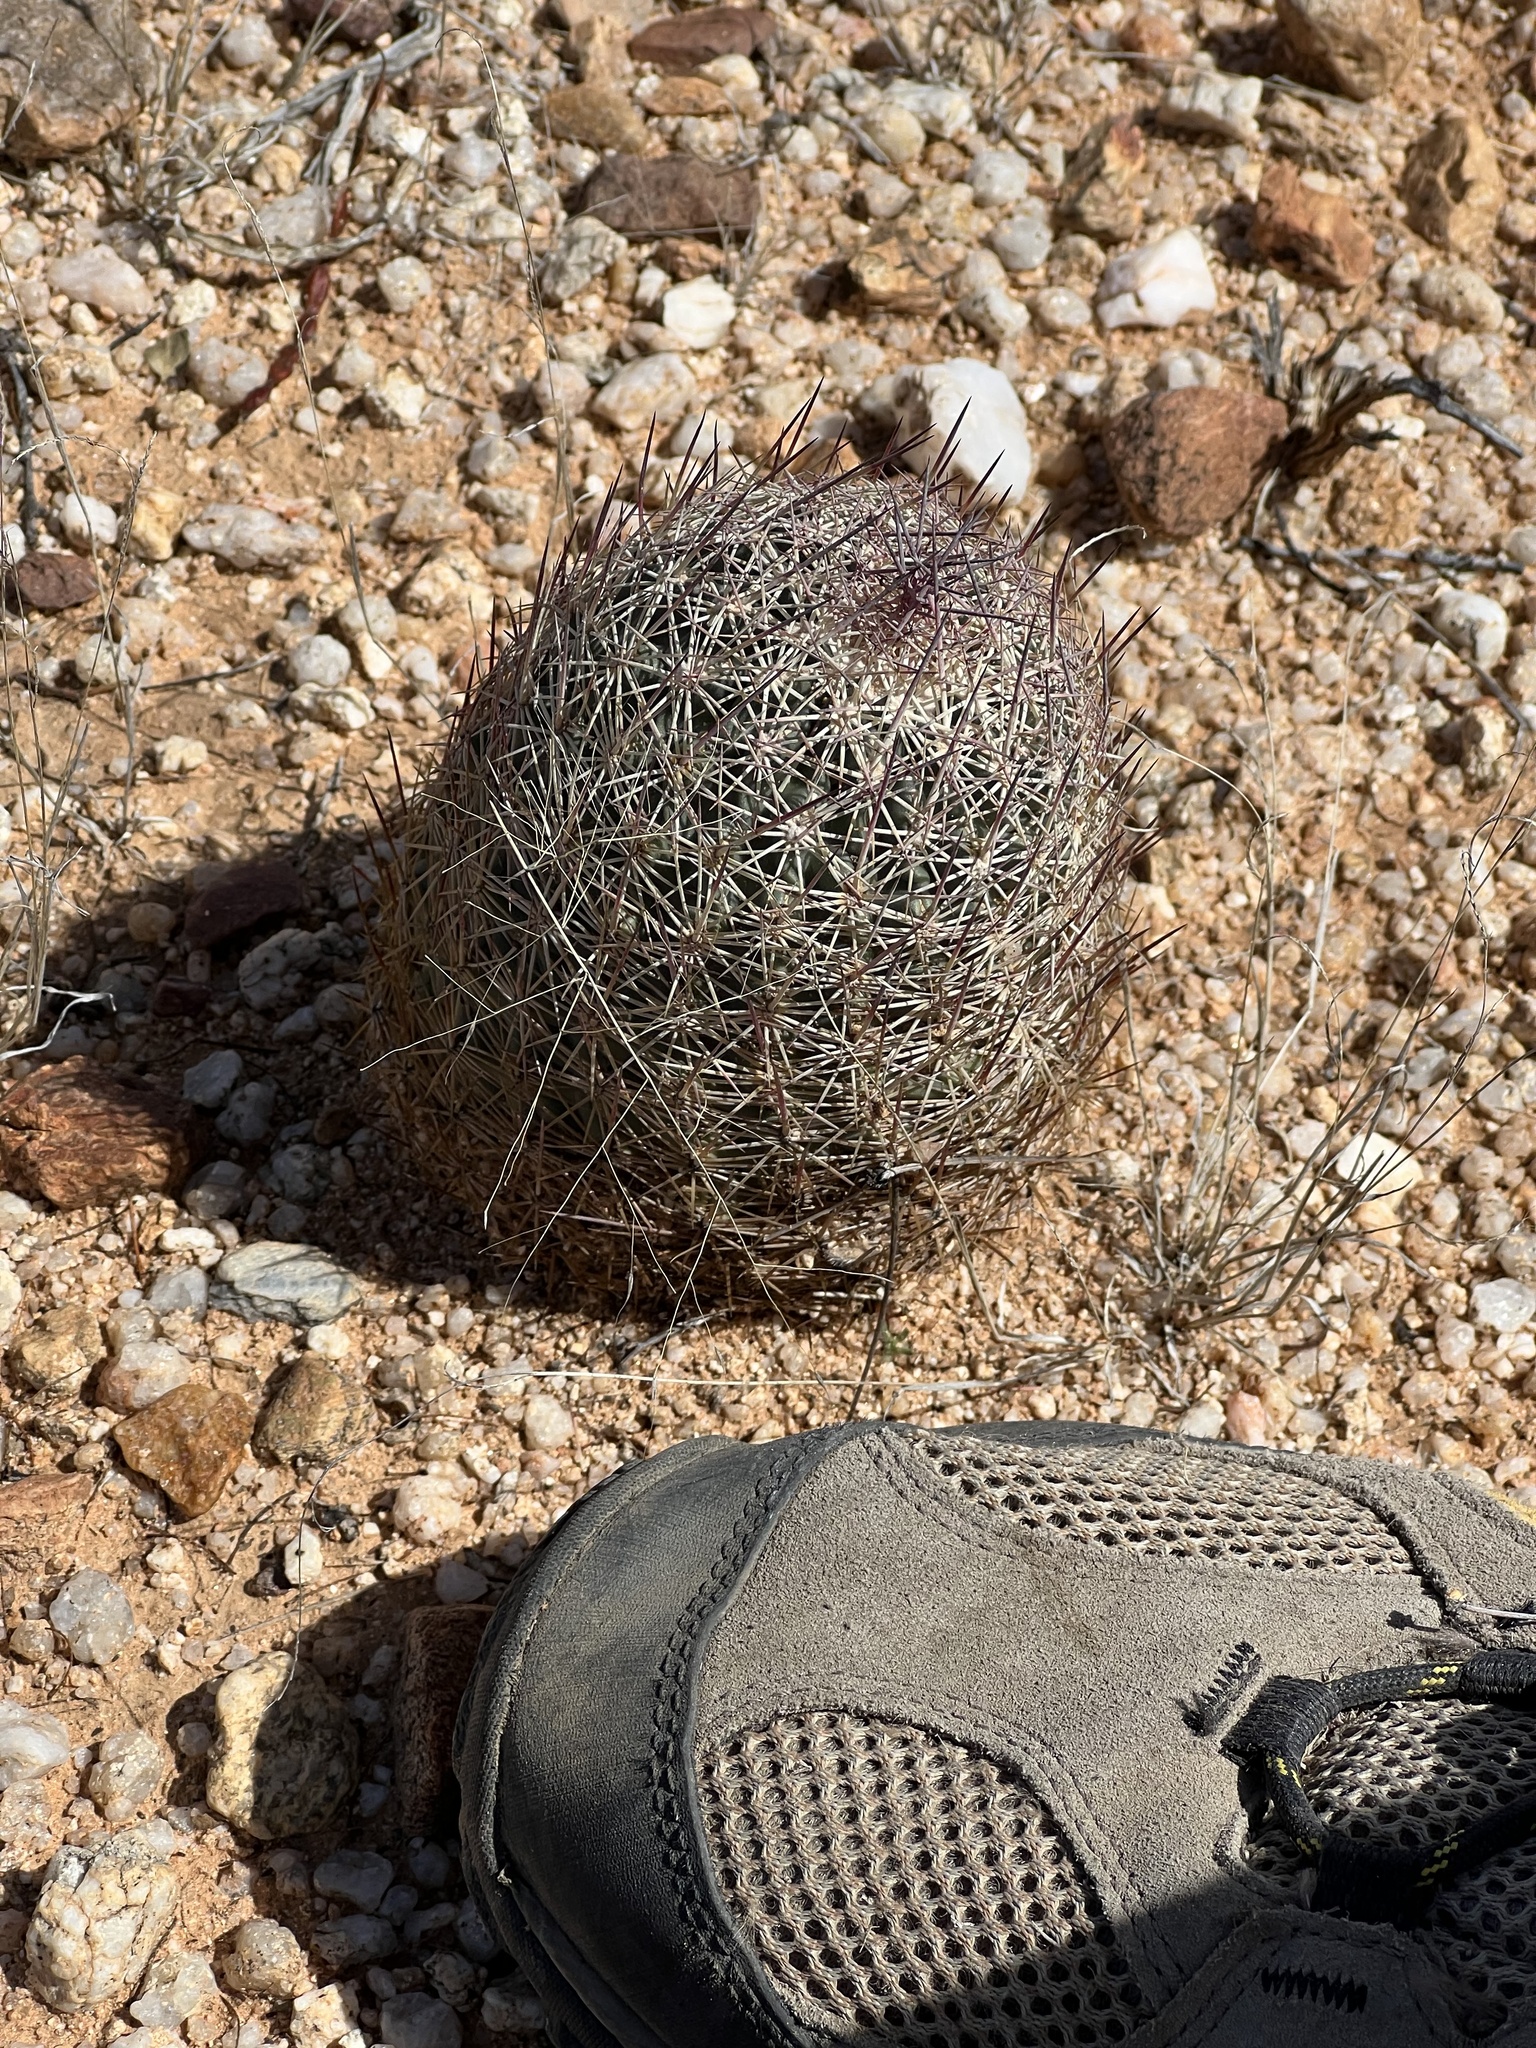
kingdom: Plantae
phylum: Tracheophyta
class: Magnoliopsida
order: Caryophyllales
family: Cactaceae
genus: Sclerocactus
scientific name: Sclerocactus johnsonii
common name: Eight-spine fishhook cactus
